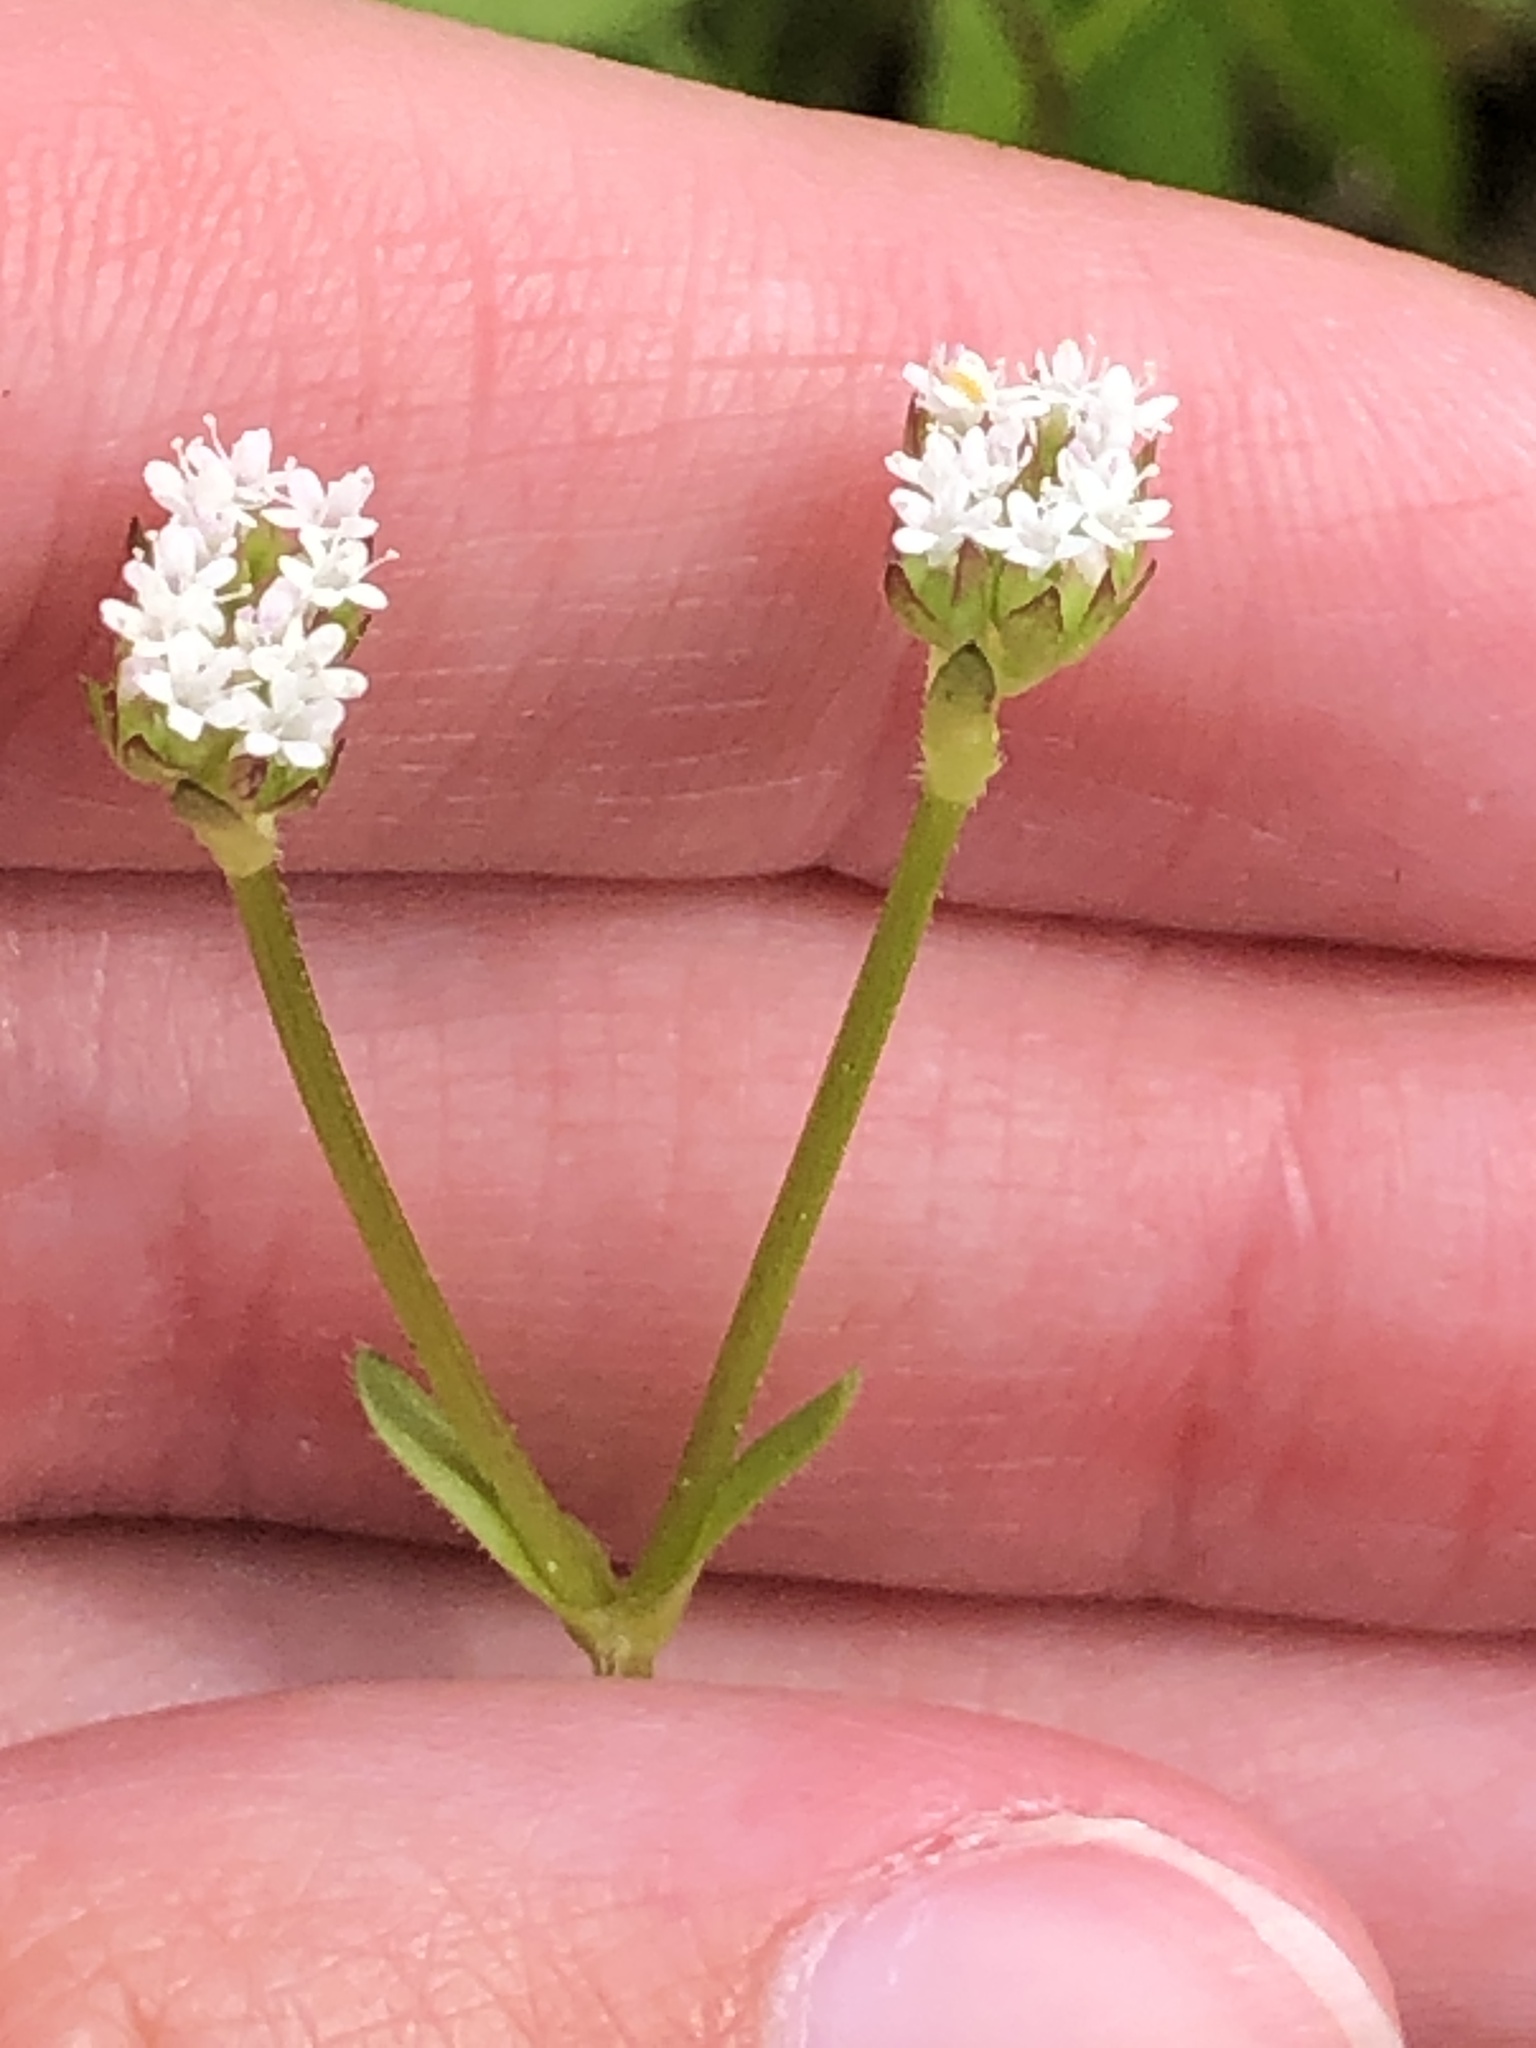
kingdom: Plantae
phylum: Tracheophyta
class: Magnoliopsida
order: Dipsacales
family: Caprifoliaceae
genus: Valerianella
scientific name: Valerianella radiata
